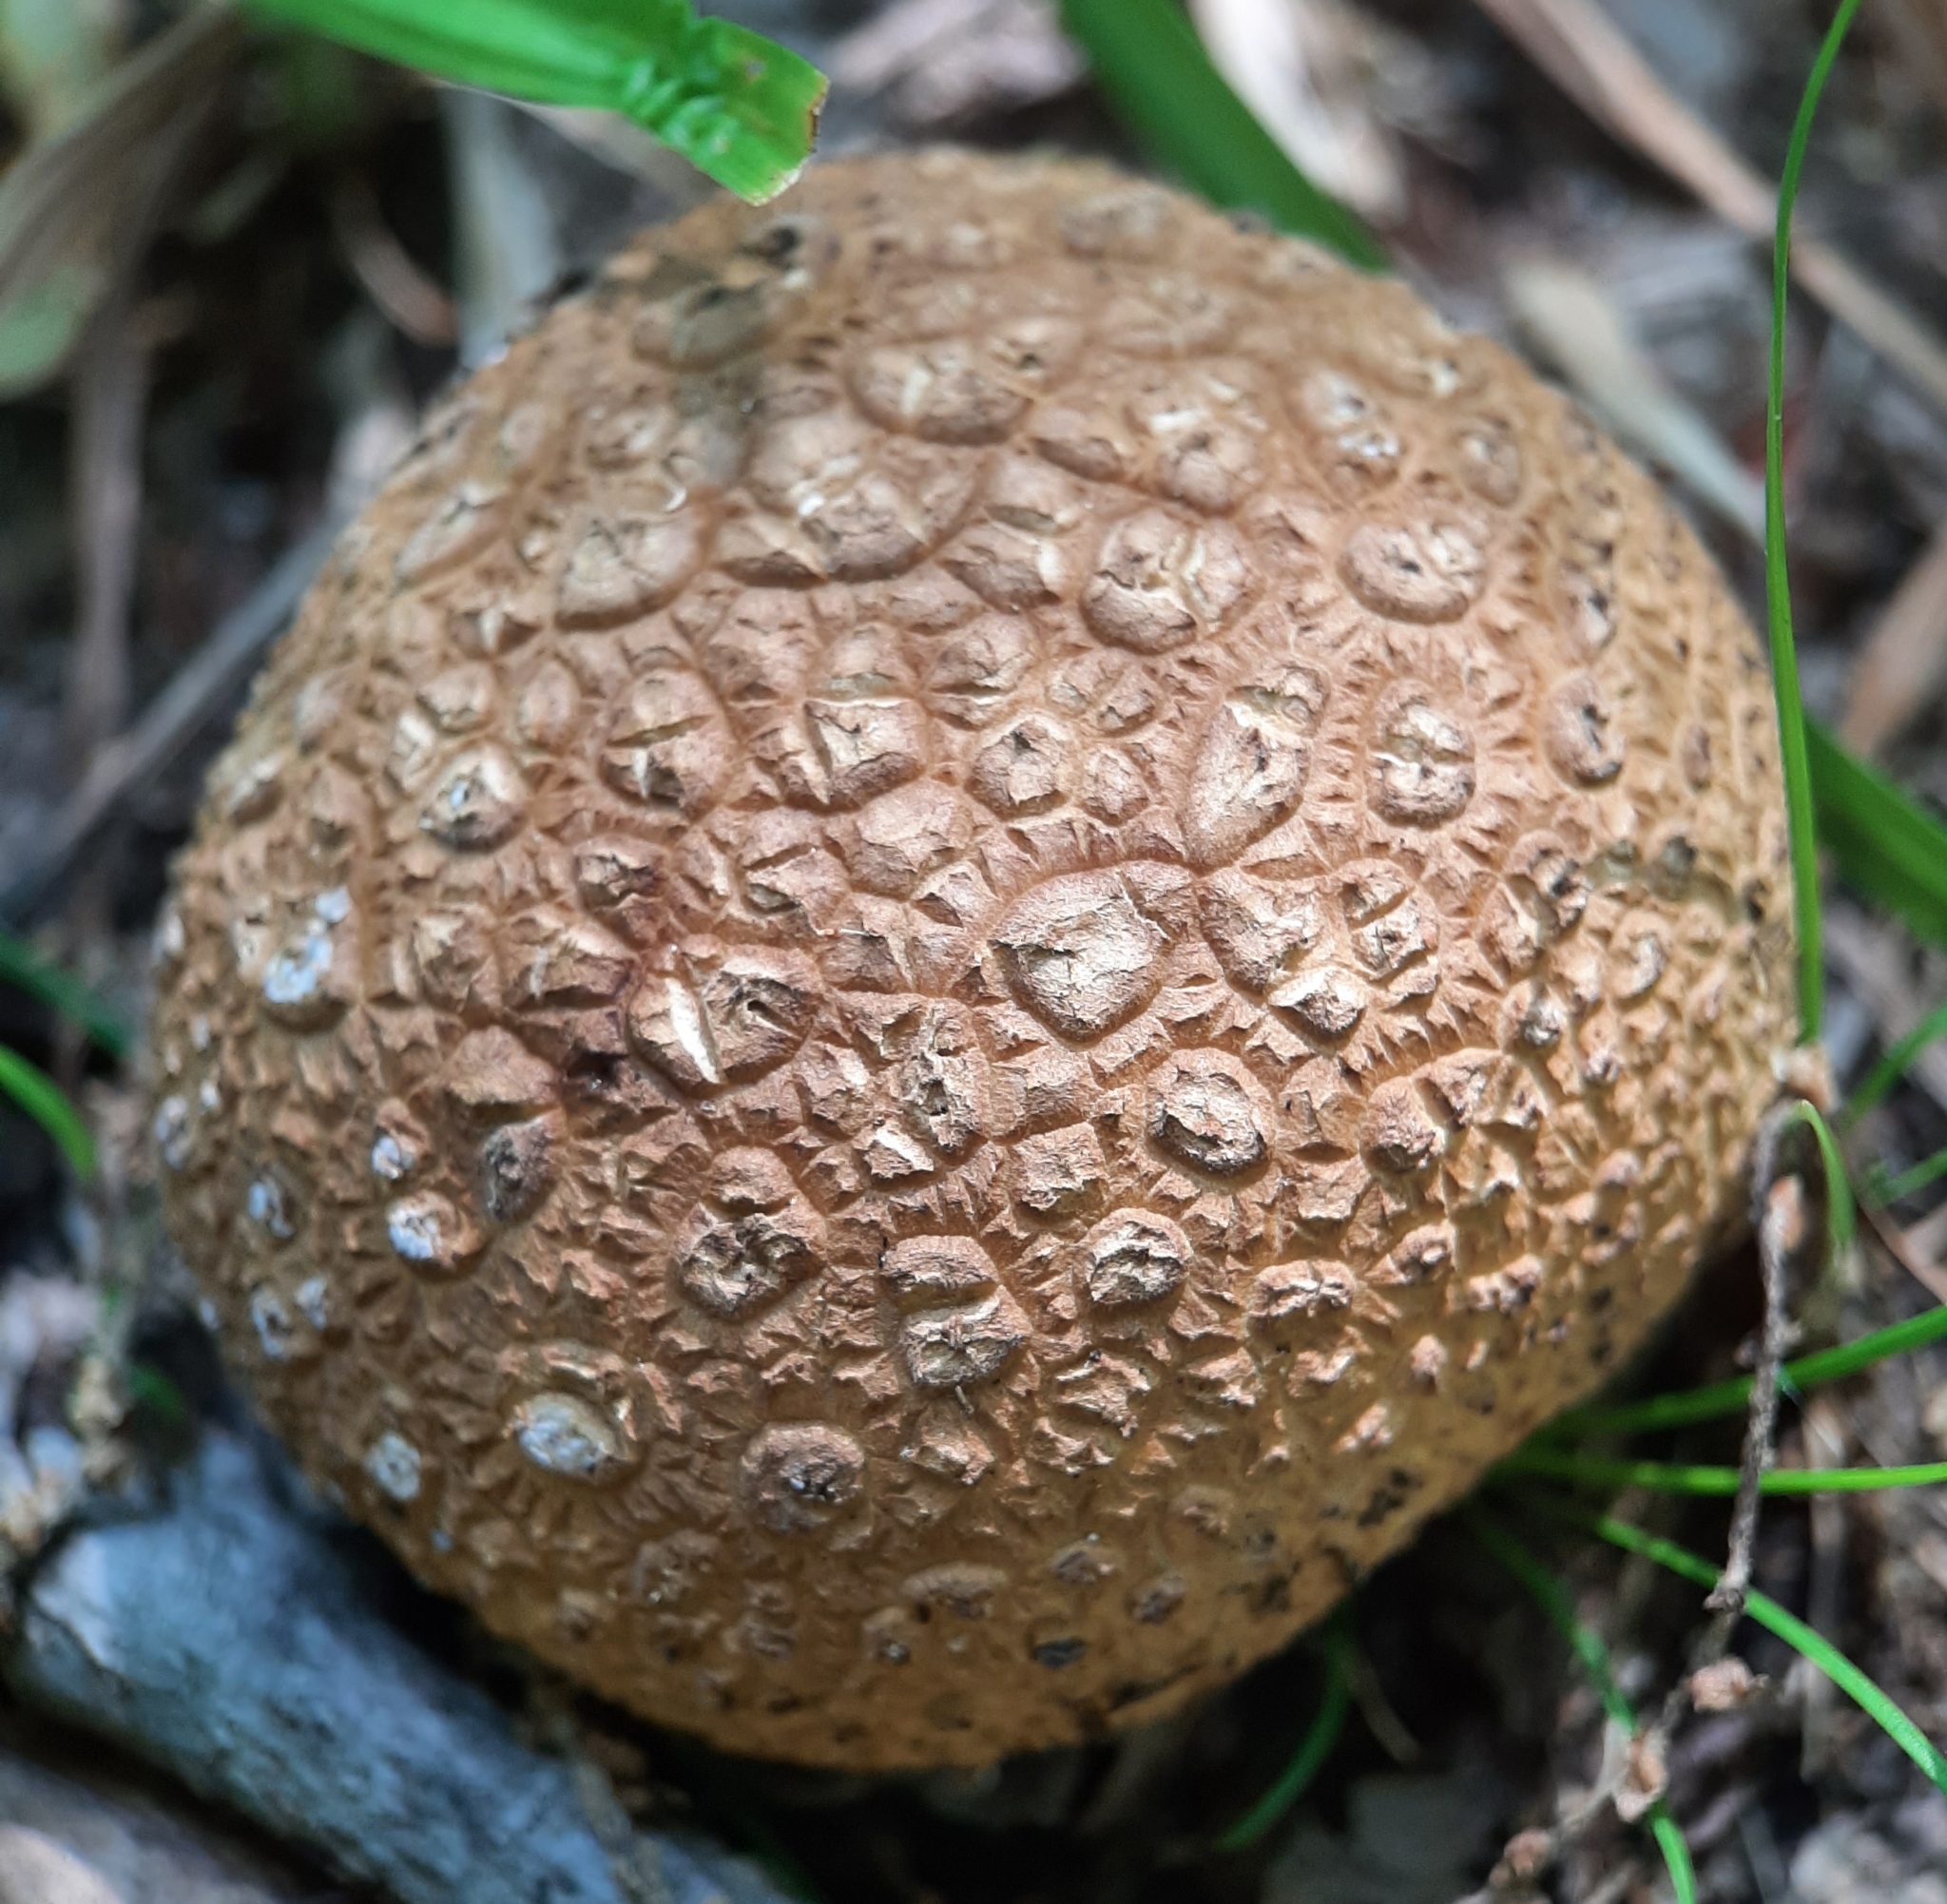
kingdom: Fungi
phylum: Basidiomycota
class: Agaricomycetes
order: Boletales
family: Sclerodermataceae
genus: Scleroderma
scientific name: Scleroderma citrinum
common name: Common earthball
